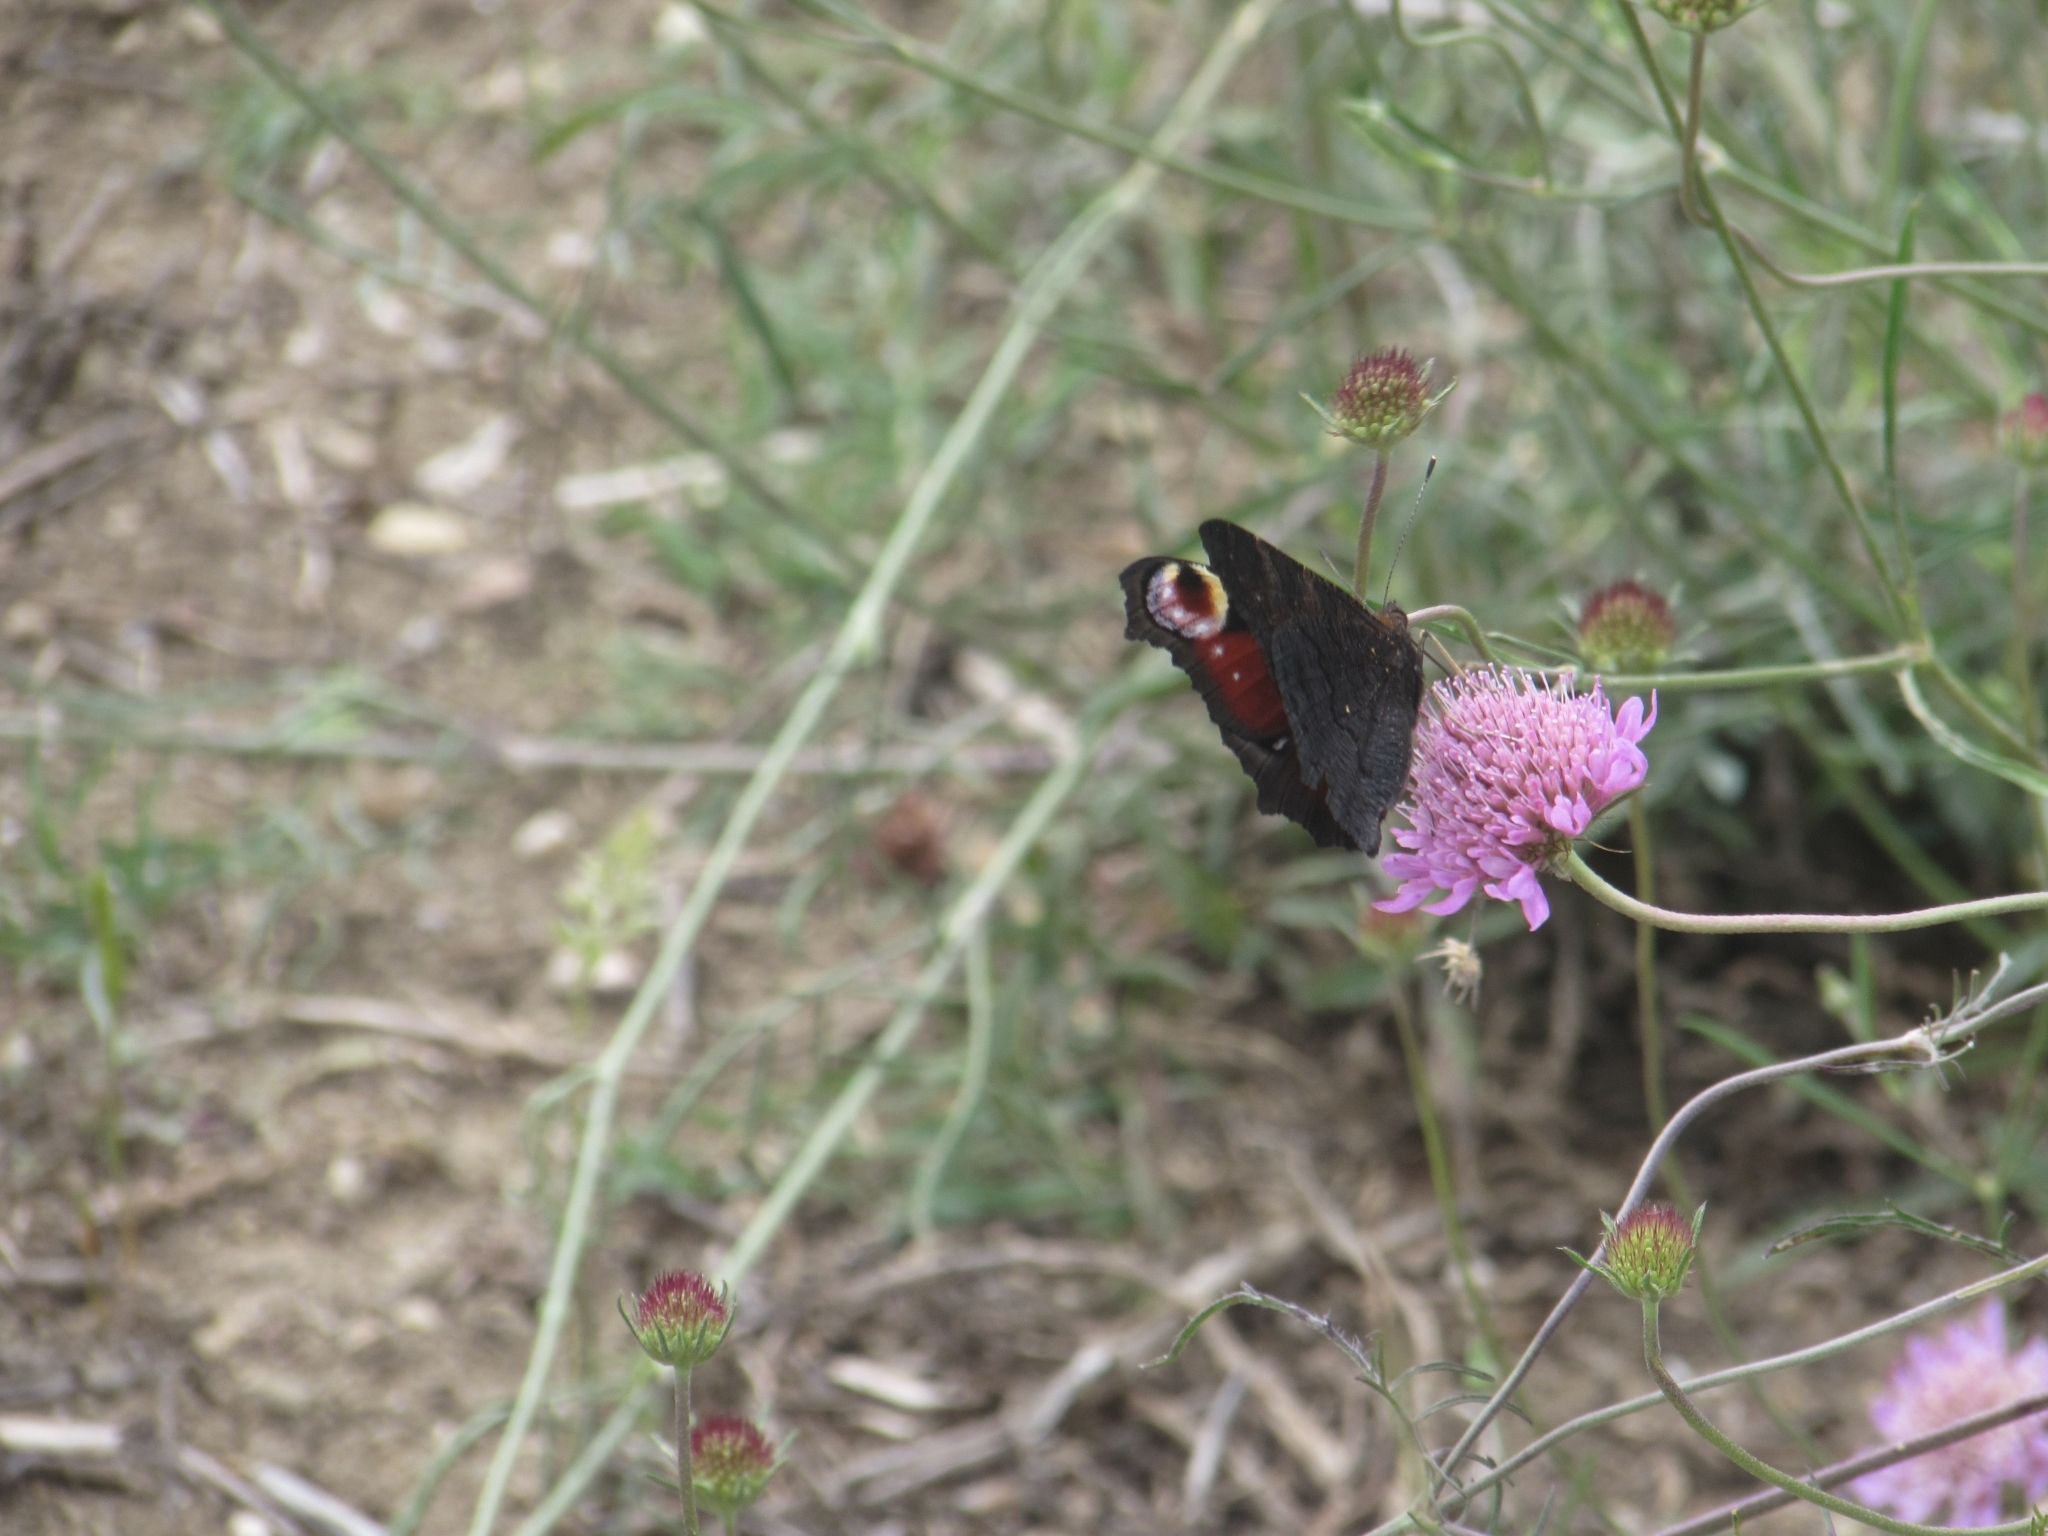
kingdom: Animalia
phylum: Arthropoda
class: Insecta
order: Lepidoptera
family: Nymphalidae
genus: Aglais
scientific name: Aglais io
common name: Peacock
